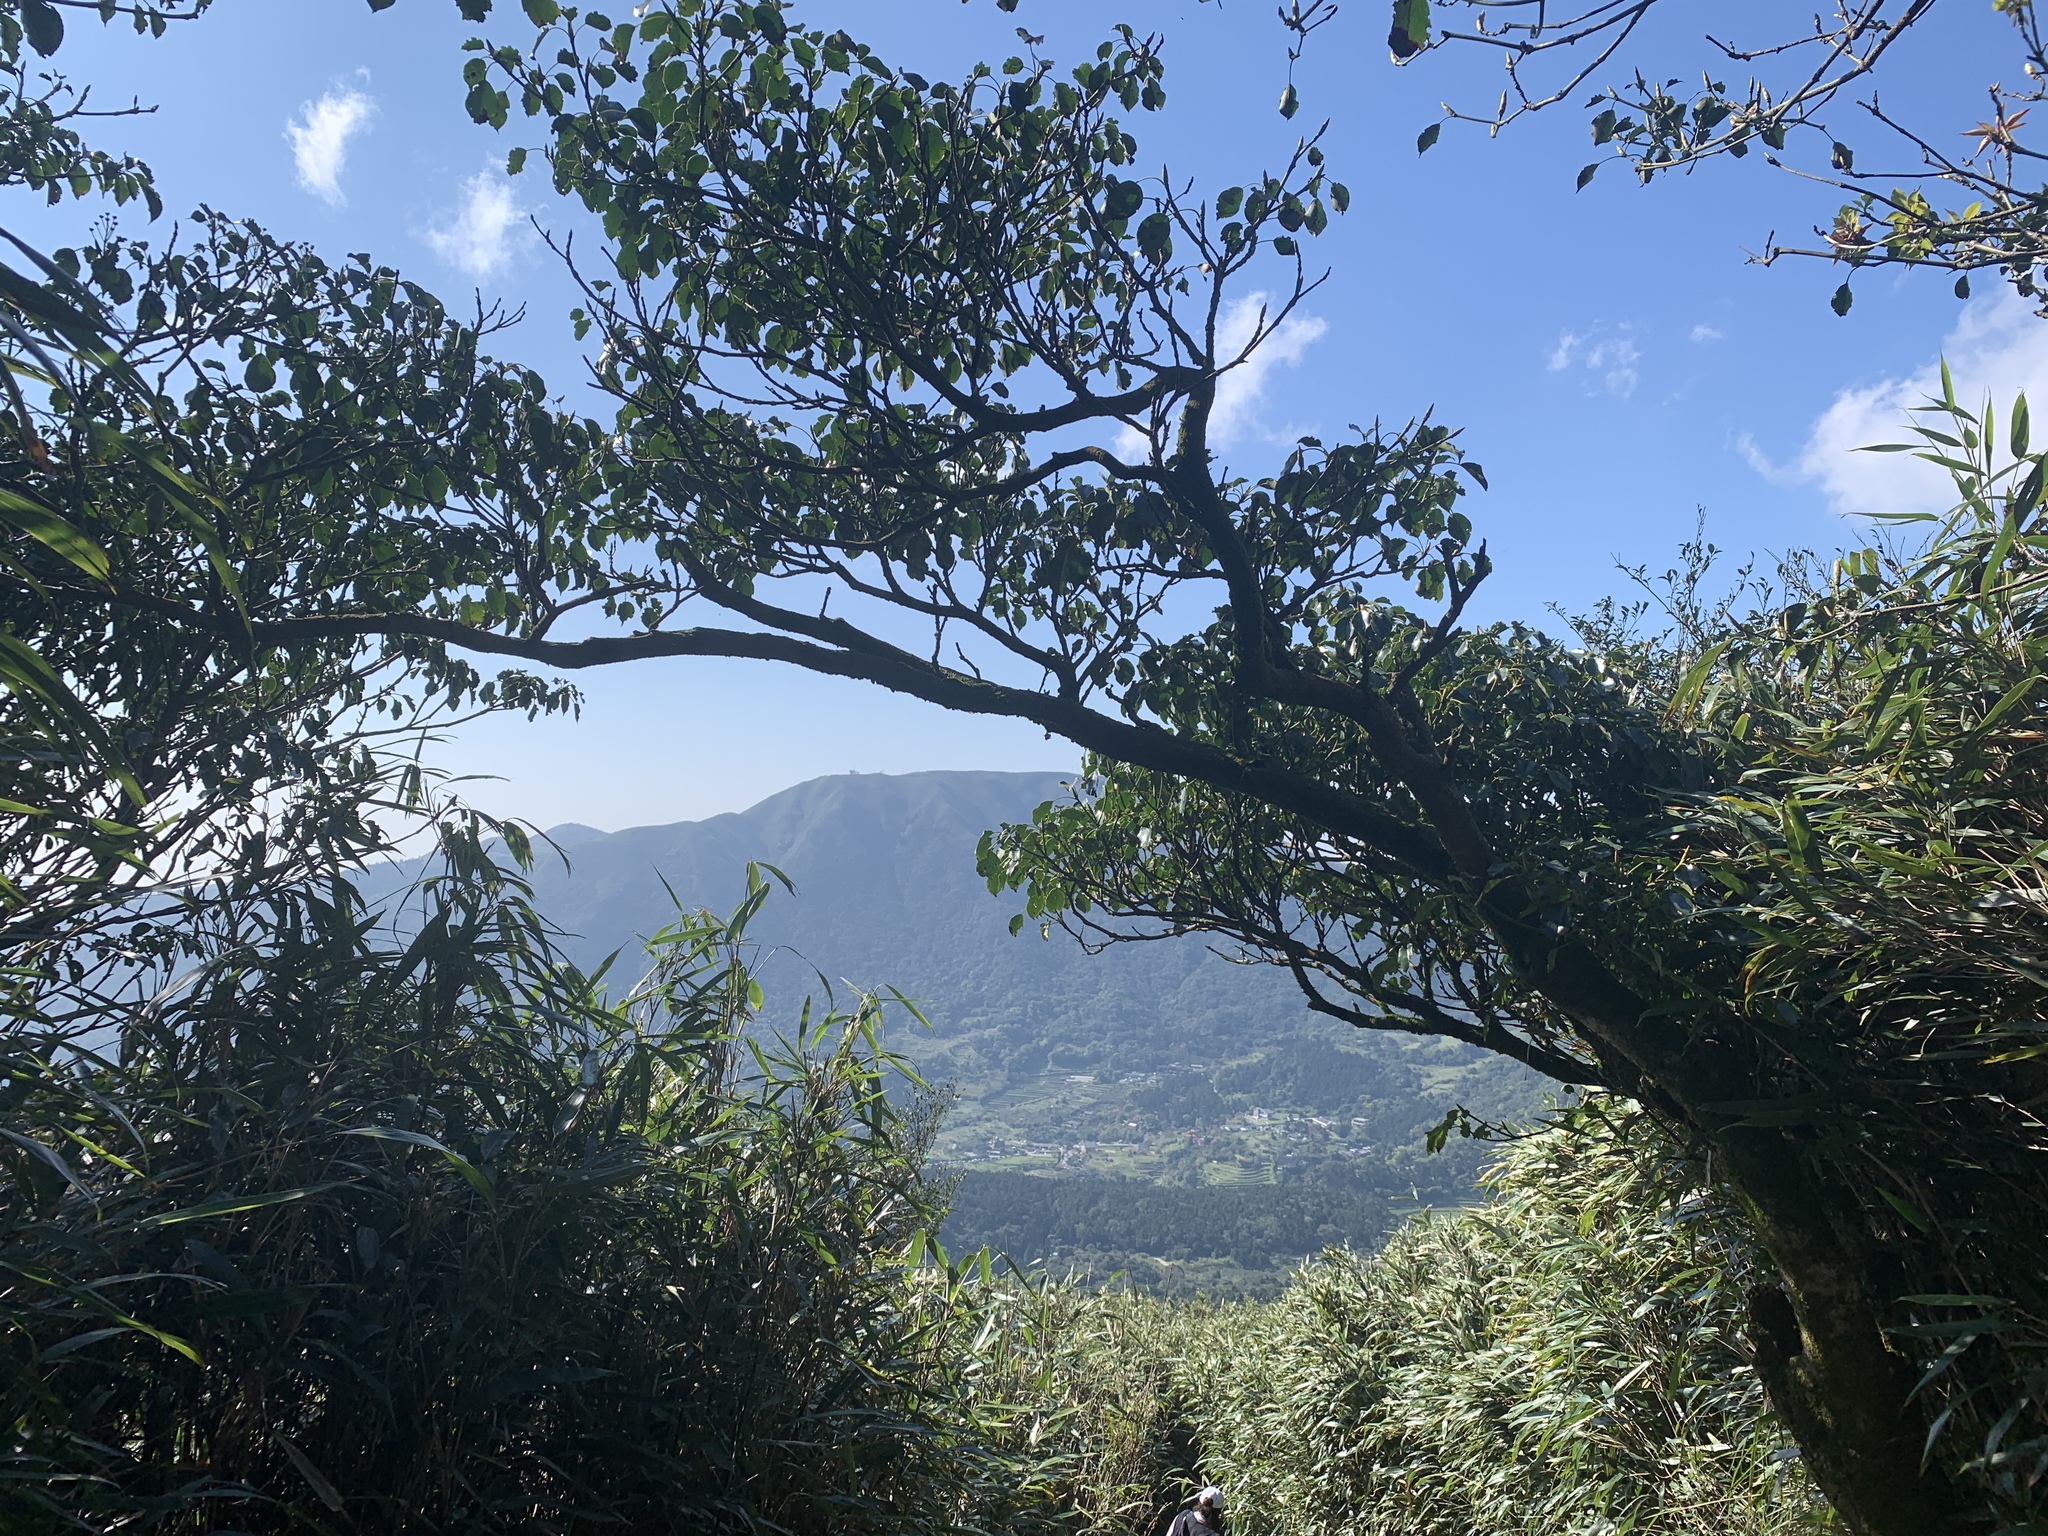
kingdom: Plantae
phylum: Tracheophyta
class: Magnoliopsida
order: Trochodendrales
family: Trochodendraceae
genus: Trochodendron
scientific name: Trochodendron aralioides
